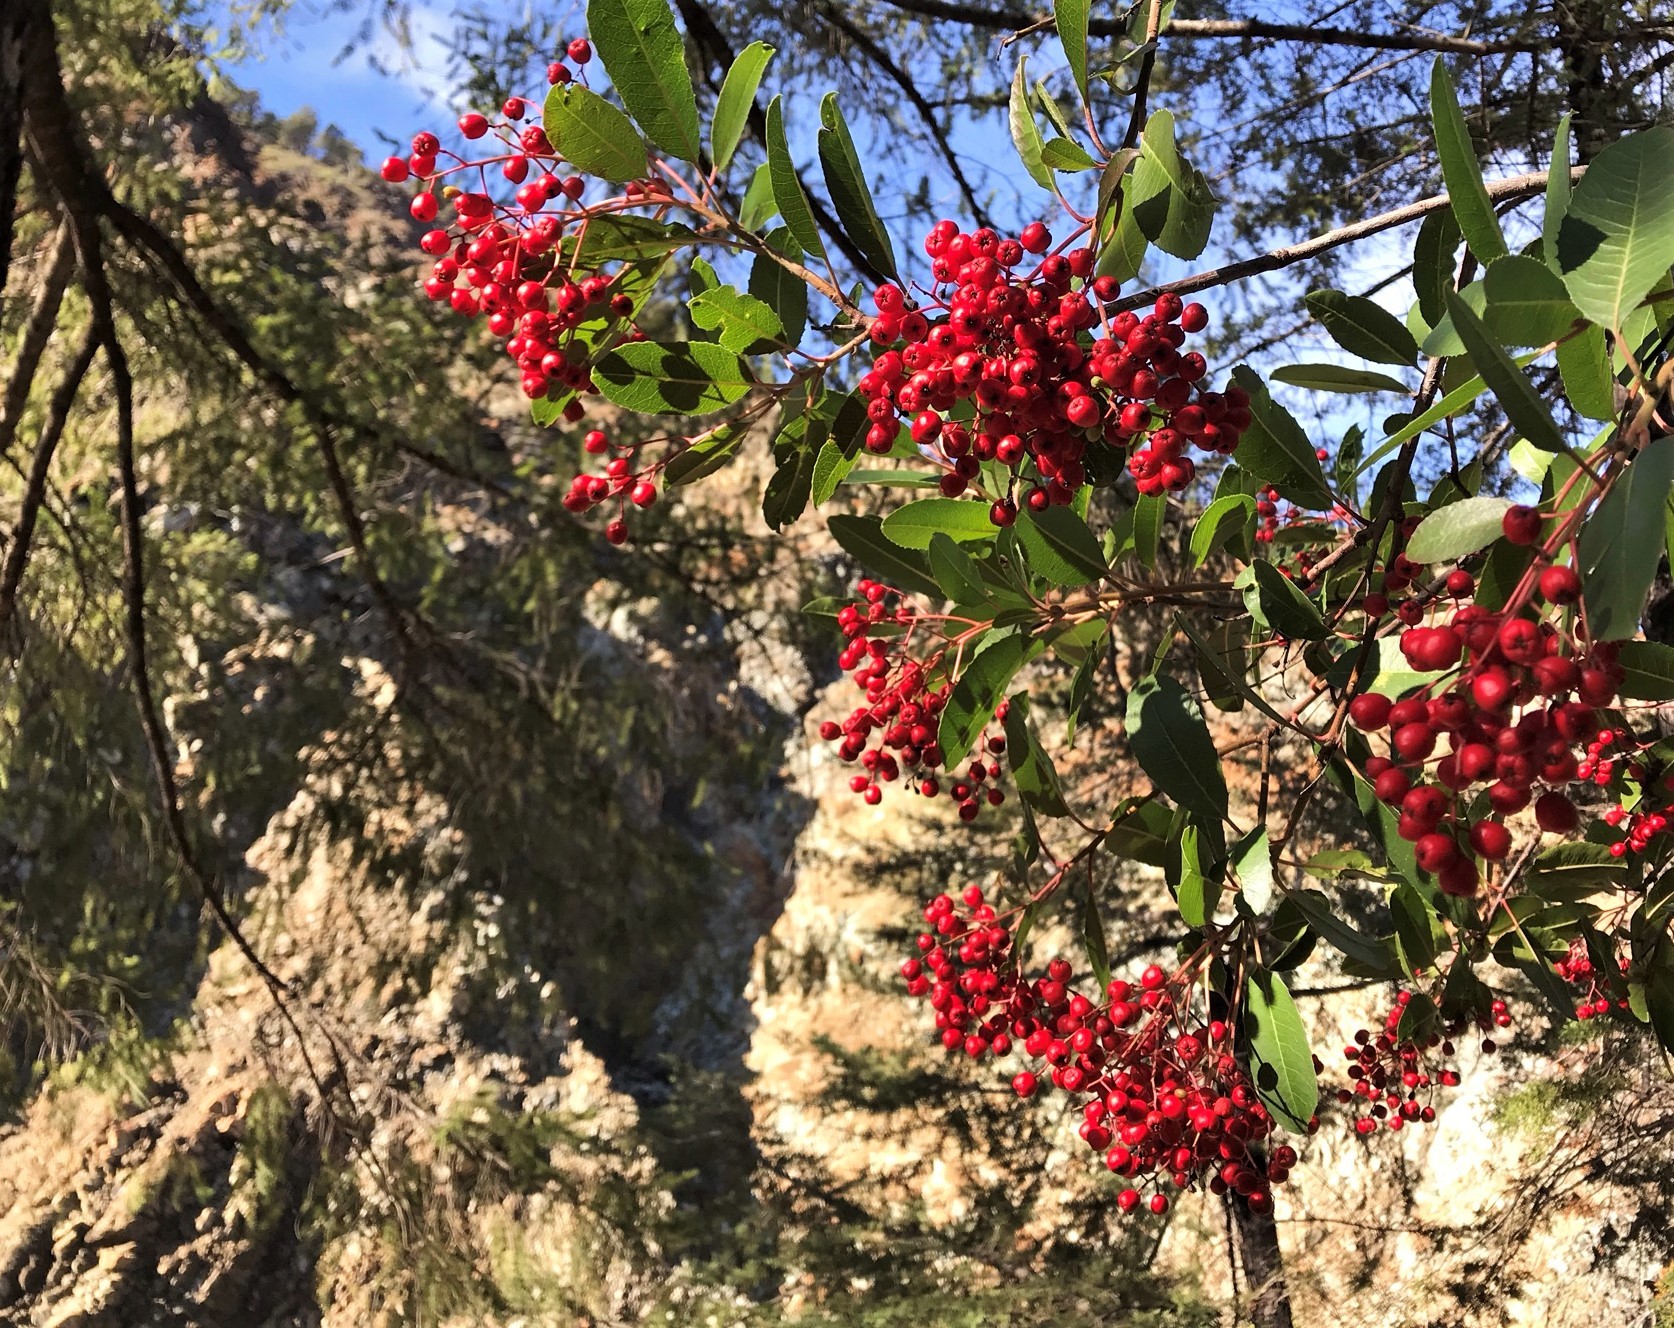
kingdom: Plantae
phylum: Tracheophyta
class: Magnoliopsida
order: Rosales
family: Rosaceae
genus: Heteromeles
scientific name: Heteromeles arbutifolia
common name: California-holly
